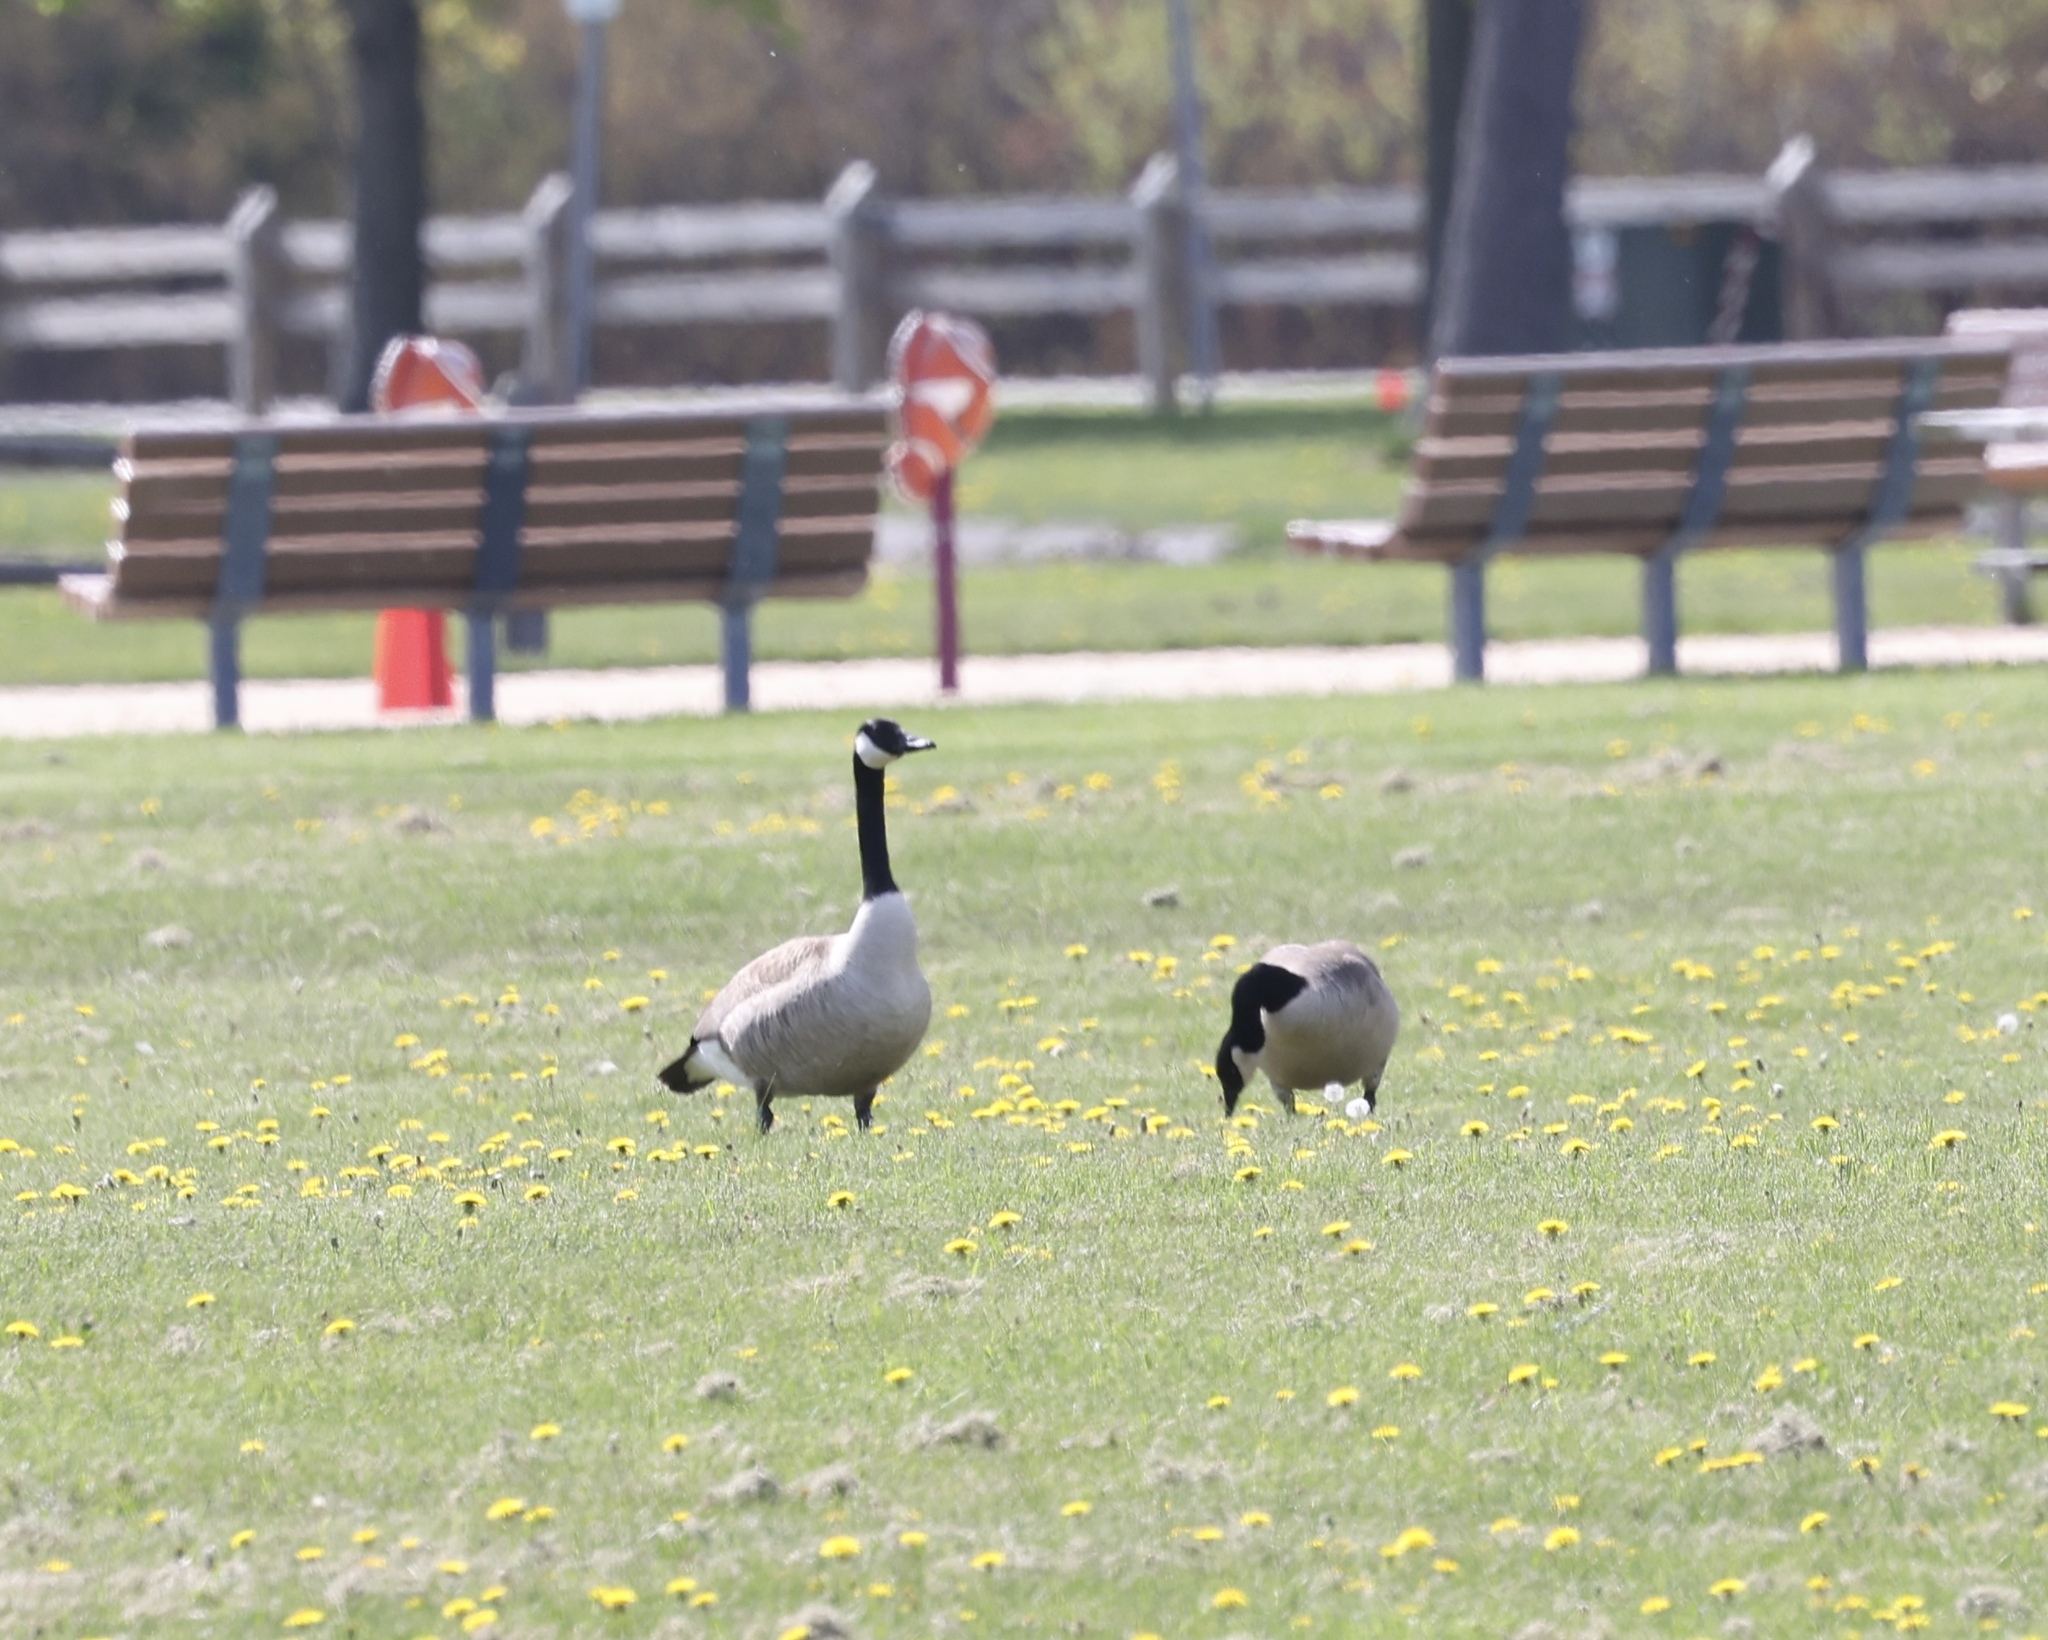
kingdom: Animalia
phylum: Chordata
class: Aves
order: Anseriformes
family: Anatidae
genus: Branta
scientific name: Branta canadensis
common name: Canada goose
